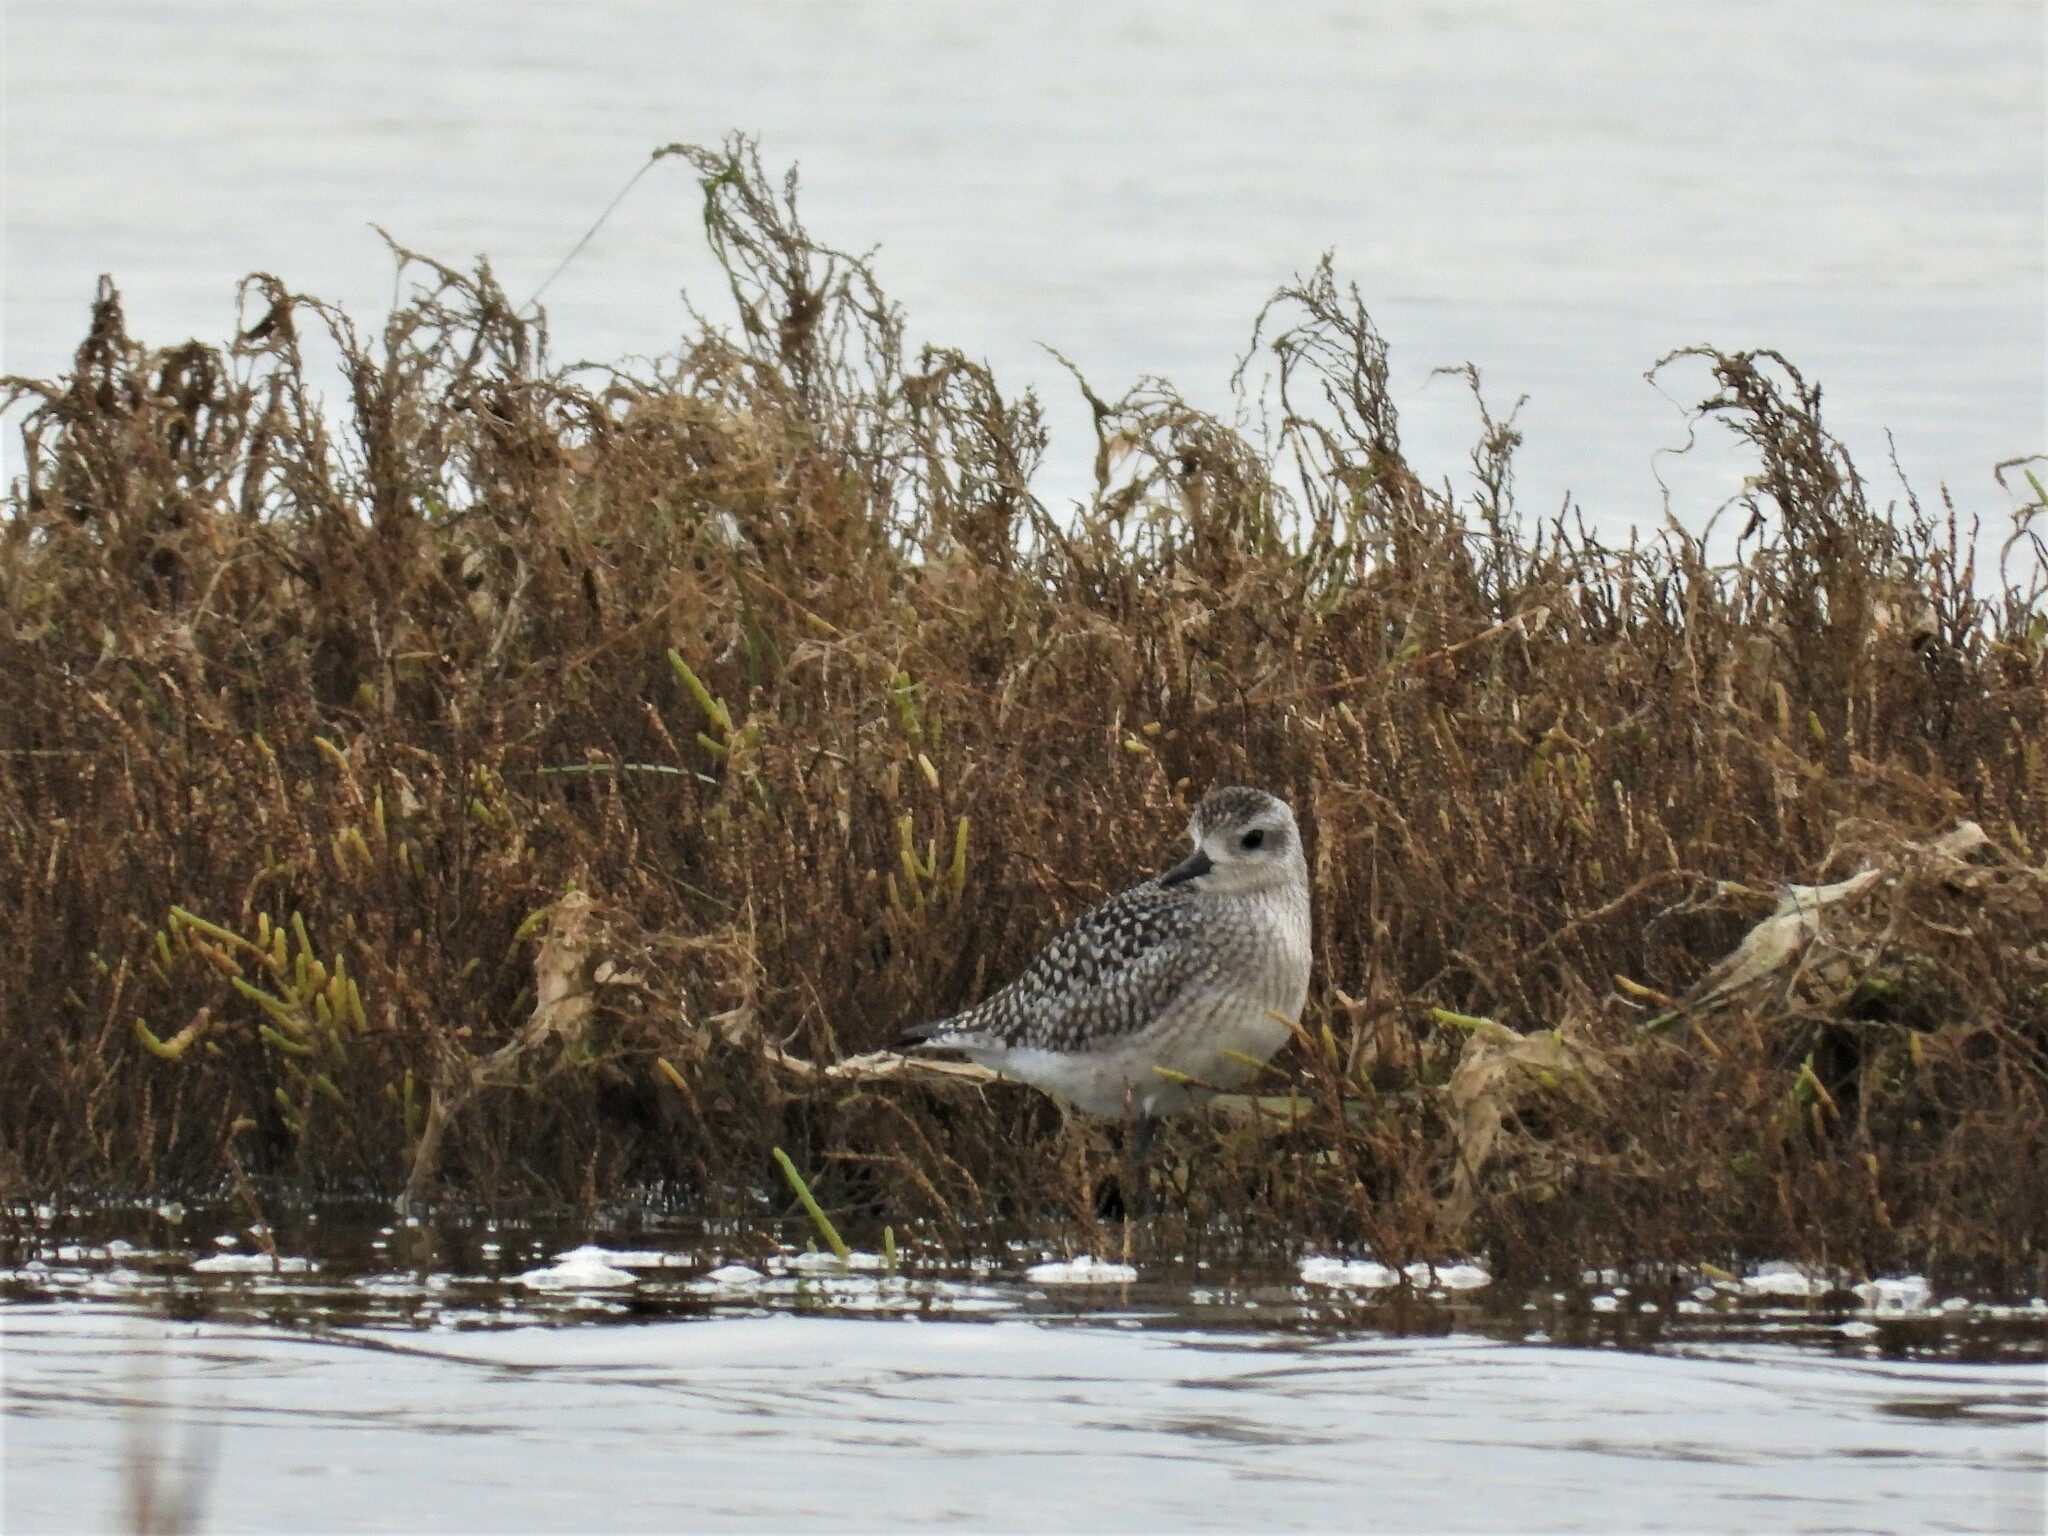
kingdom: Animalia
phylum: Chordata
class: Aves
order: Charadriiformes
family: Charadriidae
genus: Pluvialis
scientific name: Pluvialis squatarola
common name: Grey plover
